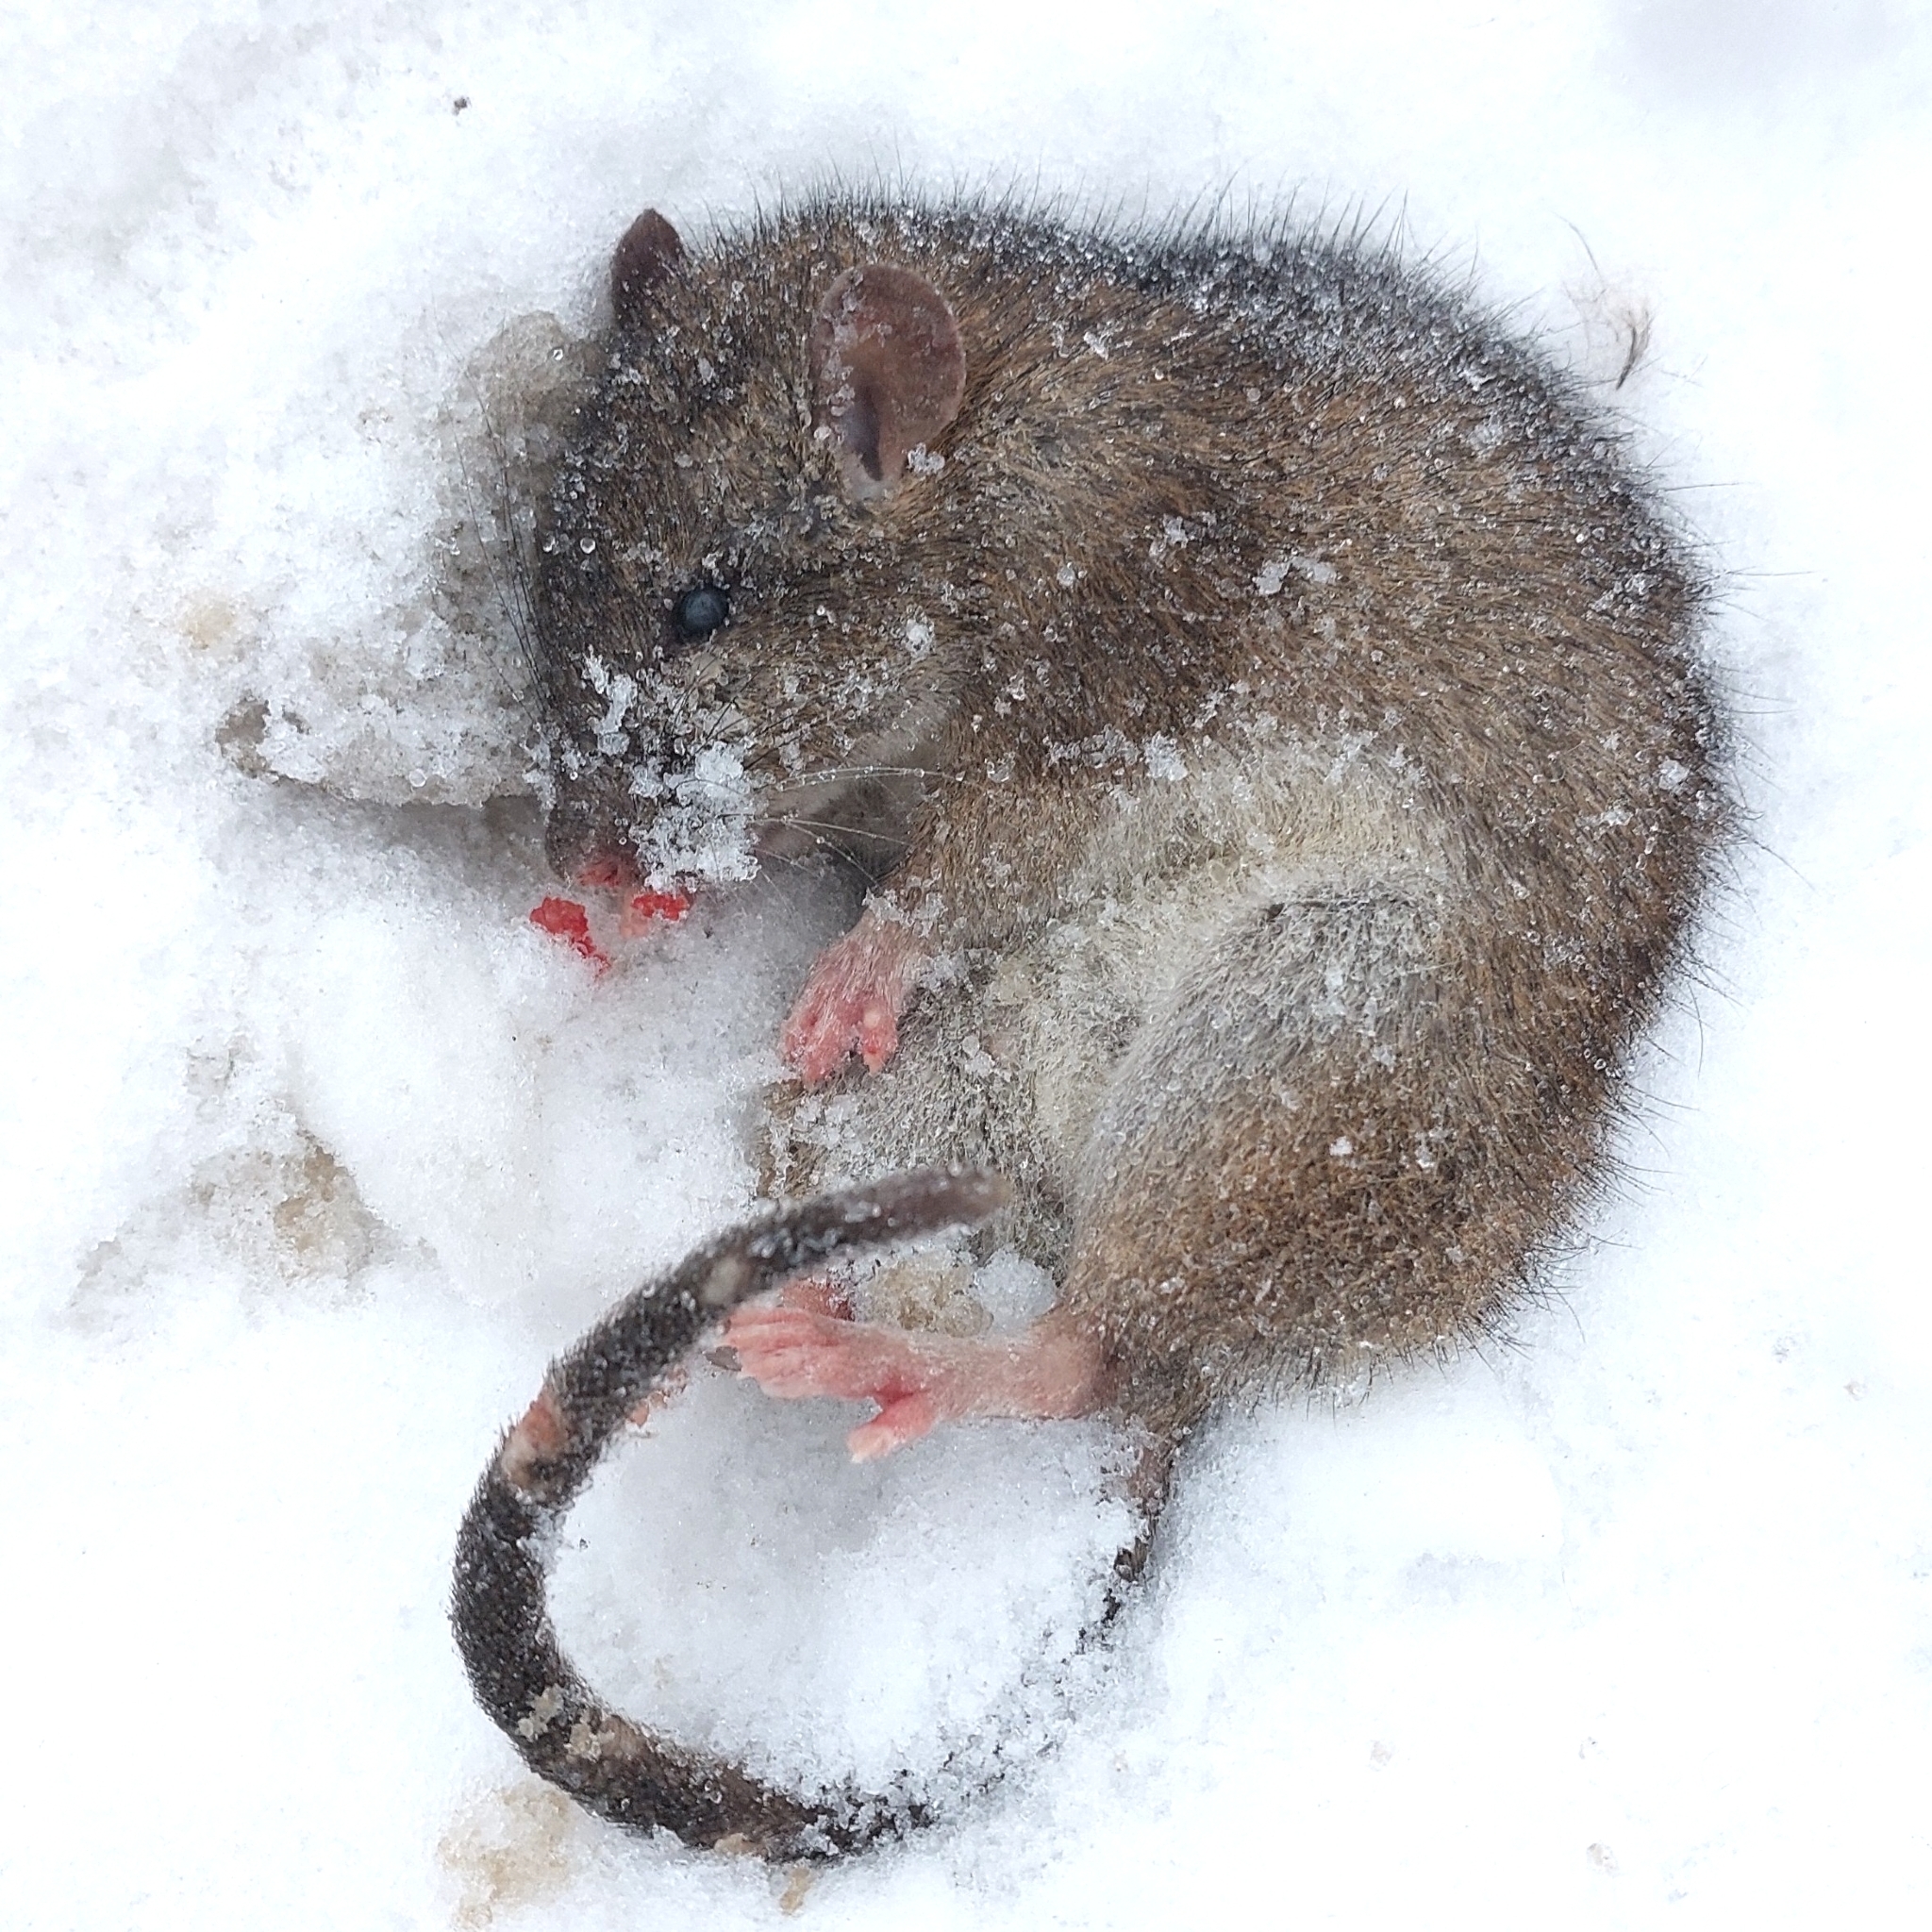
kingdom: Animalia
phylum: Chordata
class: Mammalia
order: Rodentia
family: Muridae
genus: Rattus
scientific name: Rattus norvegicus
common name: Brown rat
